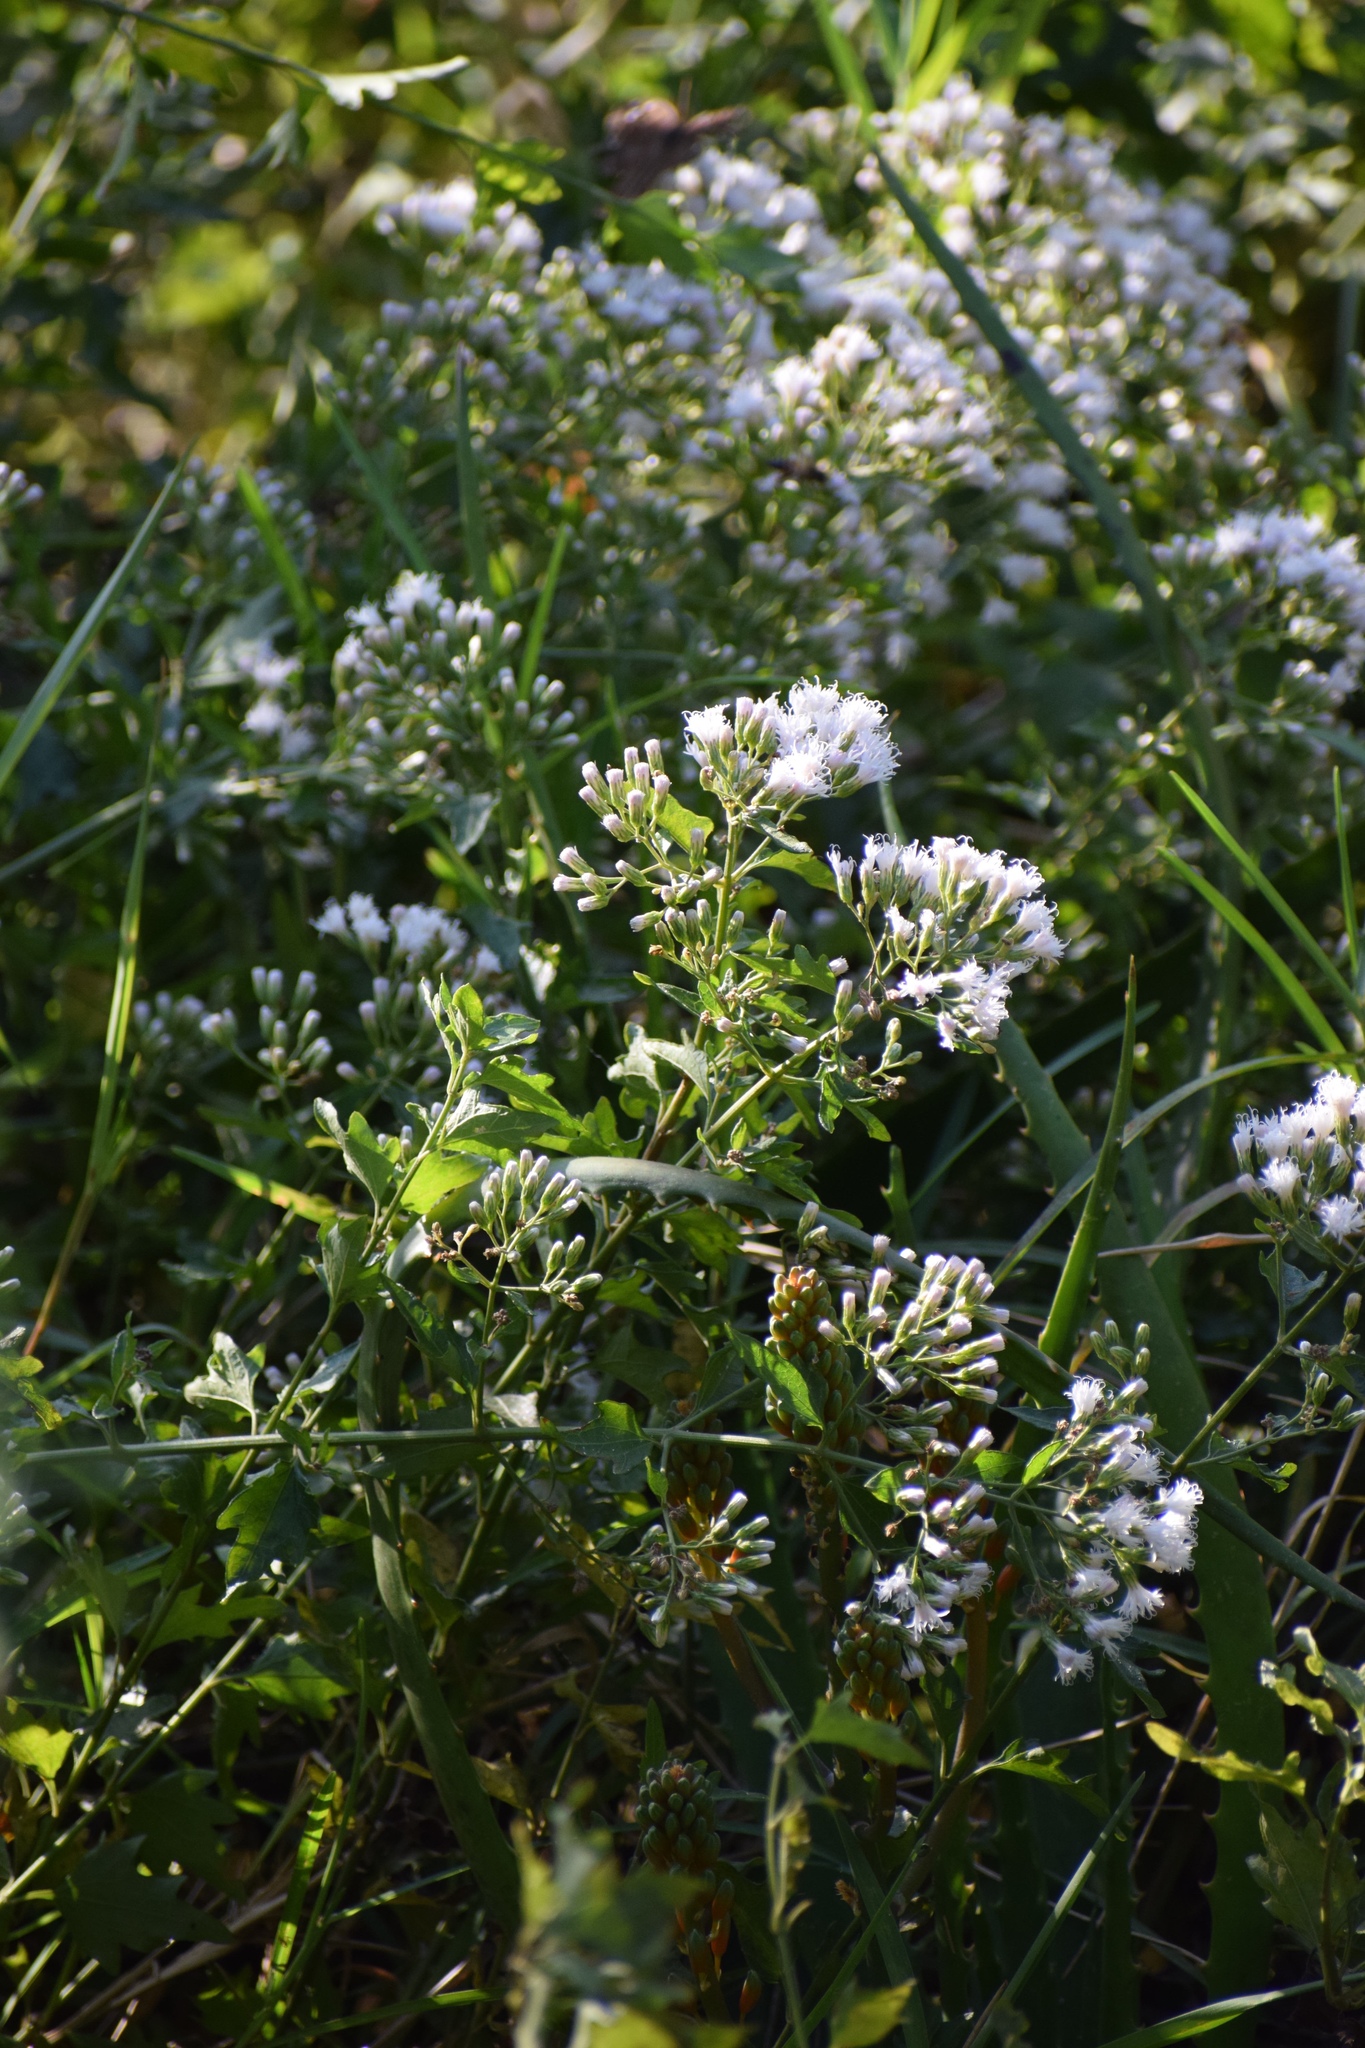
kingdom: Plantae
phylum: Tracheophyta
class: Magnoliopsida
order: Asterales
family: Asteraceae
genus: Distephanus
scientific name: Distephanus angulifolius
